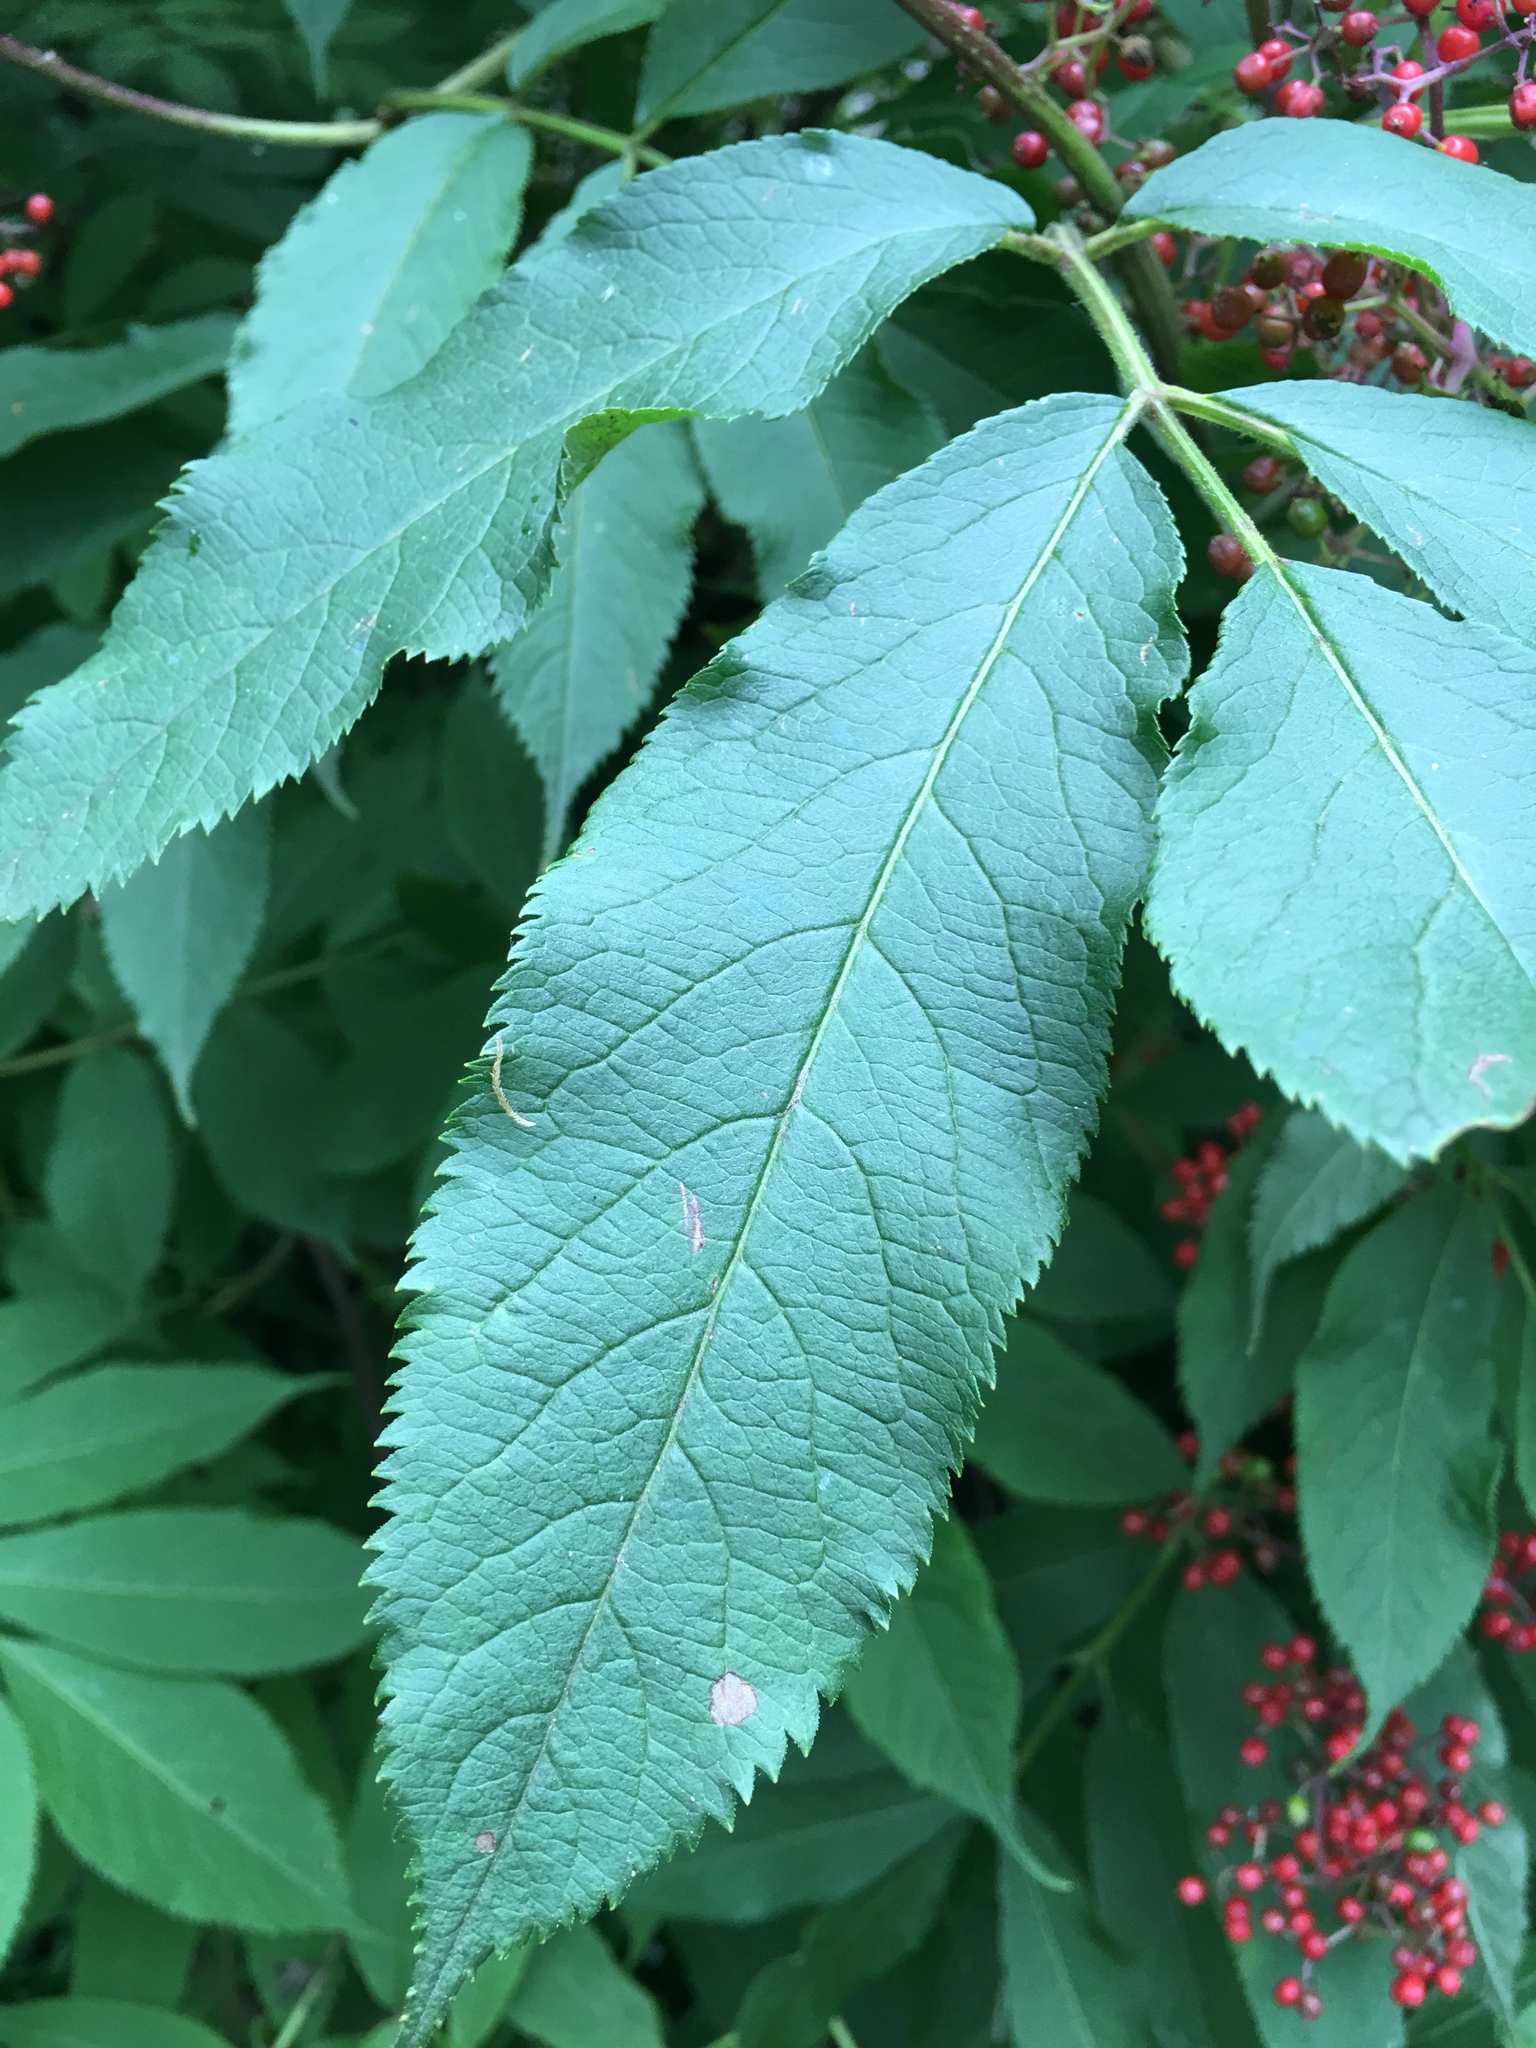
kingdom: Plantae
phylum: Tracheophyta
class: Magnoliopsida
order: Dipsacales
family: Viburnaceae
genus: Sambucus
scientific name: Sambucus racemosa
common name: Red-berried elder
